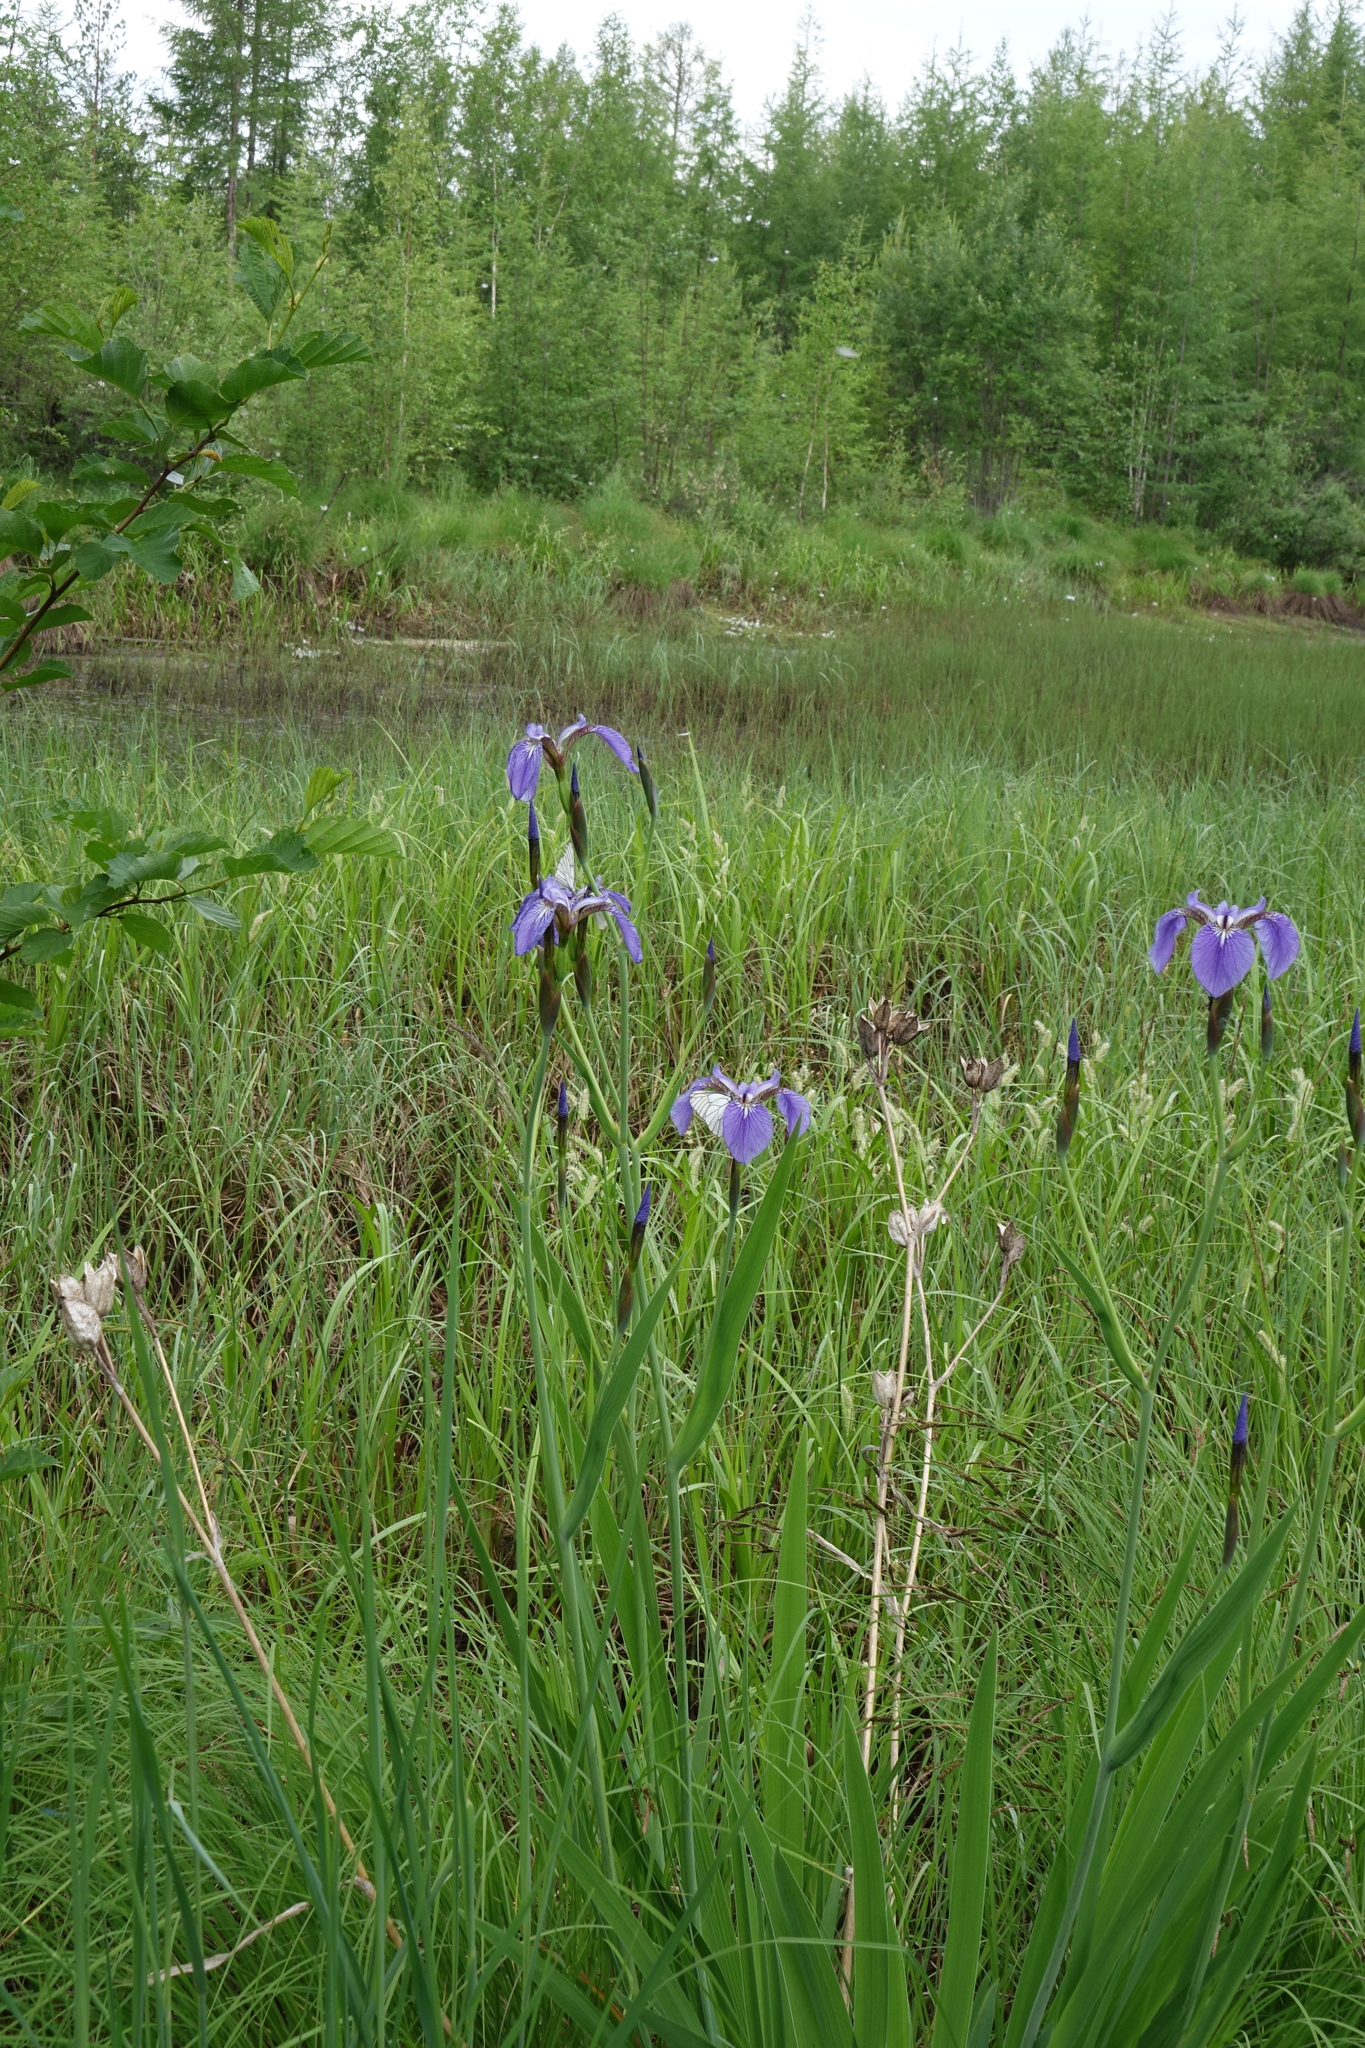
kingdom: Plantae
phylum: Tracheophyta
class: Liliopsida
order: Asparagales
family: Iridaceae
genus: Iris
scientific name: Iris setosa
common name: Arctic blue flag
